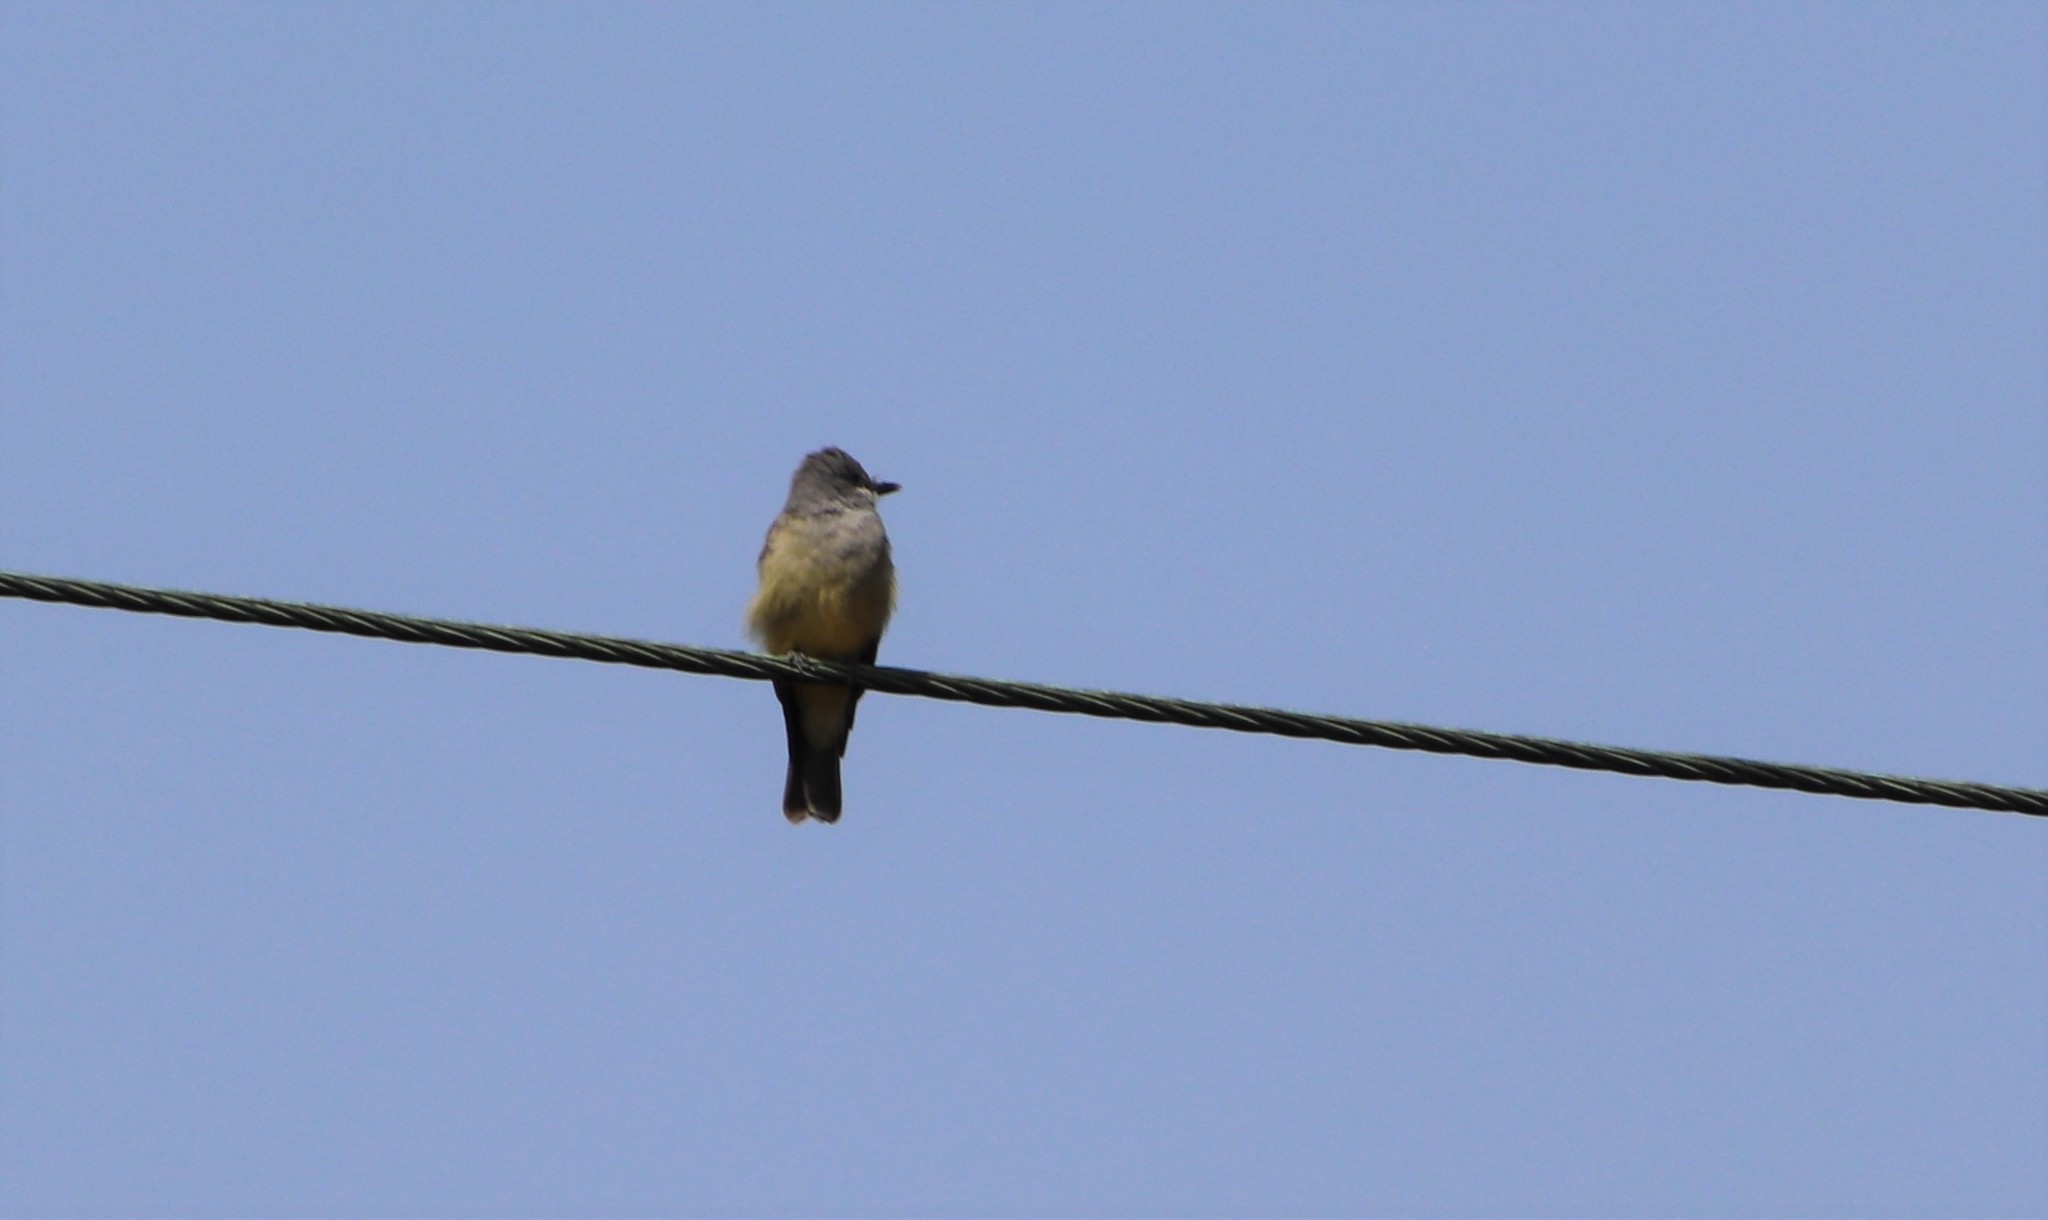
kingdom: Animalia
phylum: Chordata
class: Aves
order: Passeriformes
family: Tyrannidae
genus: Tyrannus
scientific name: Tyrannus vociferans
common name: Cassin's kingbird
